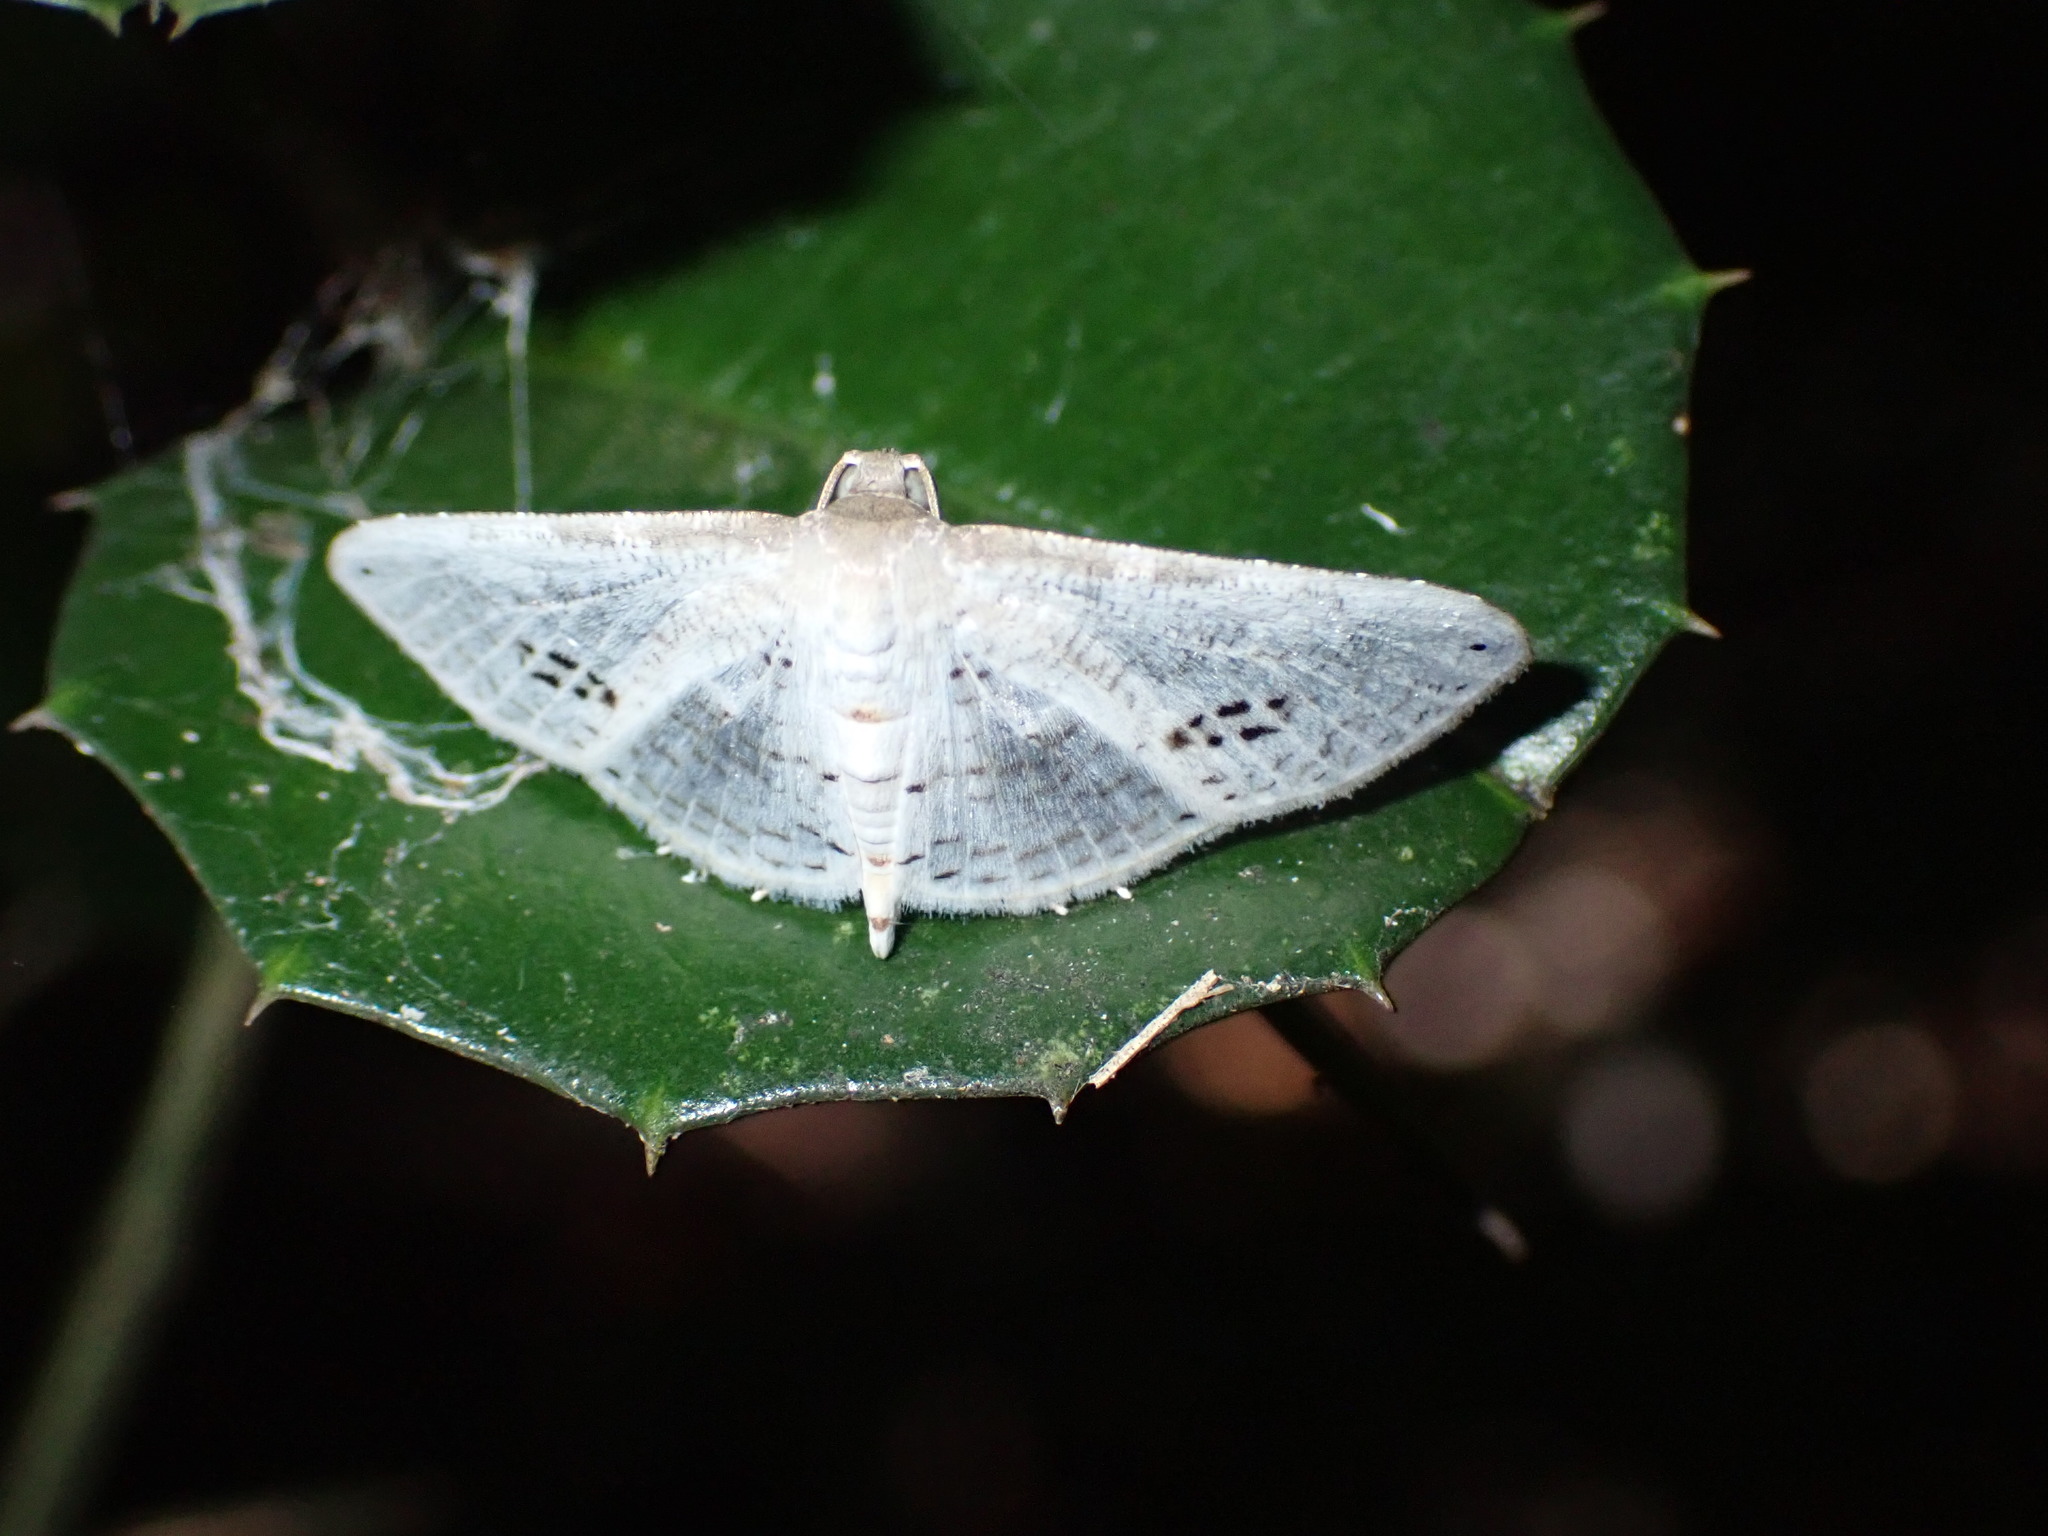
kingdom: Animalia
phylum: Arthropoda
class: Insecta
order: Lepidoptera
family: Thyrididae
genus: Calindoea
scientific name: Calindoea
